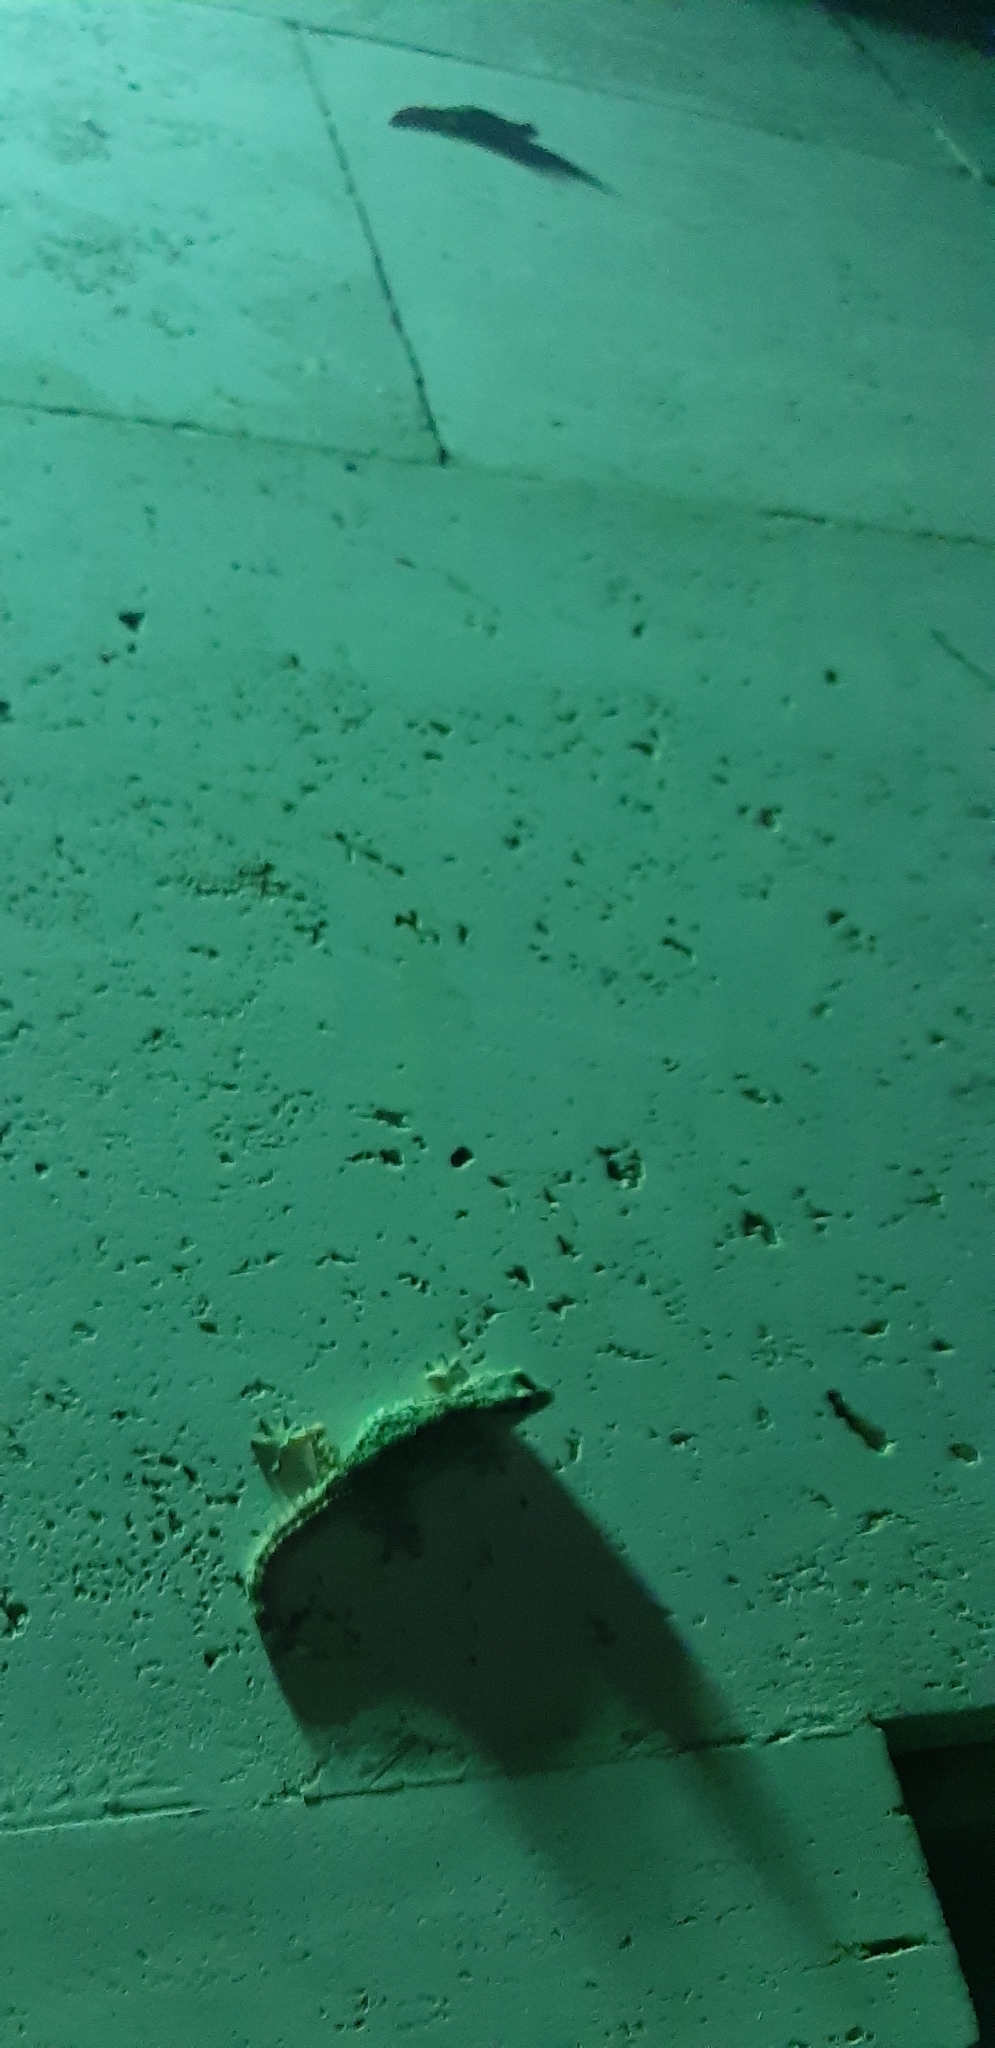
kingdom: Animalia
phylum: Chordata
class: Squamata
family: Phyllodactylidae
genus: Tarentola
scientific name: Tarentola mauritanica
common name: Moorish gecko
